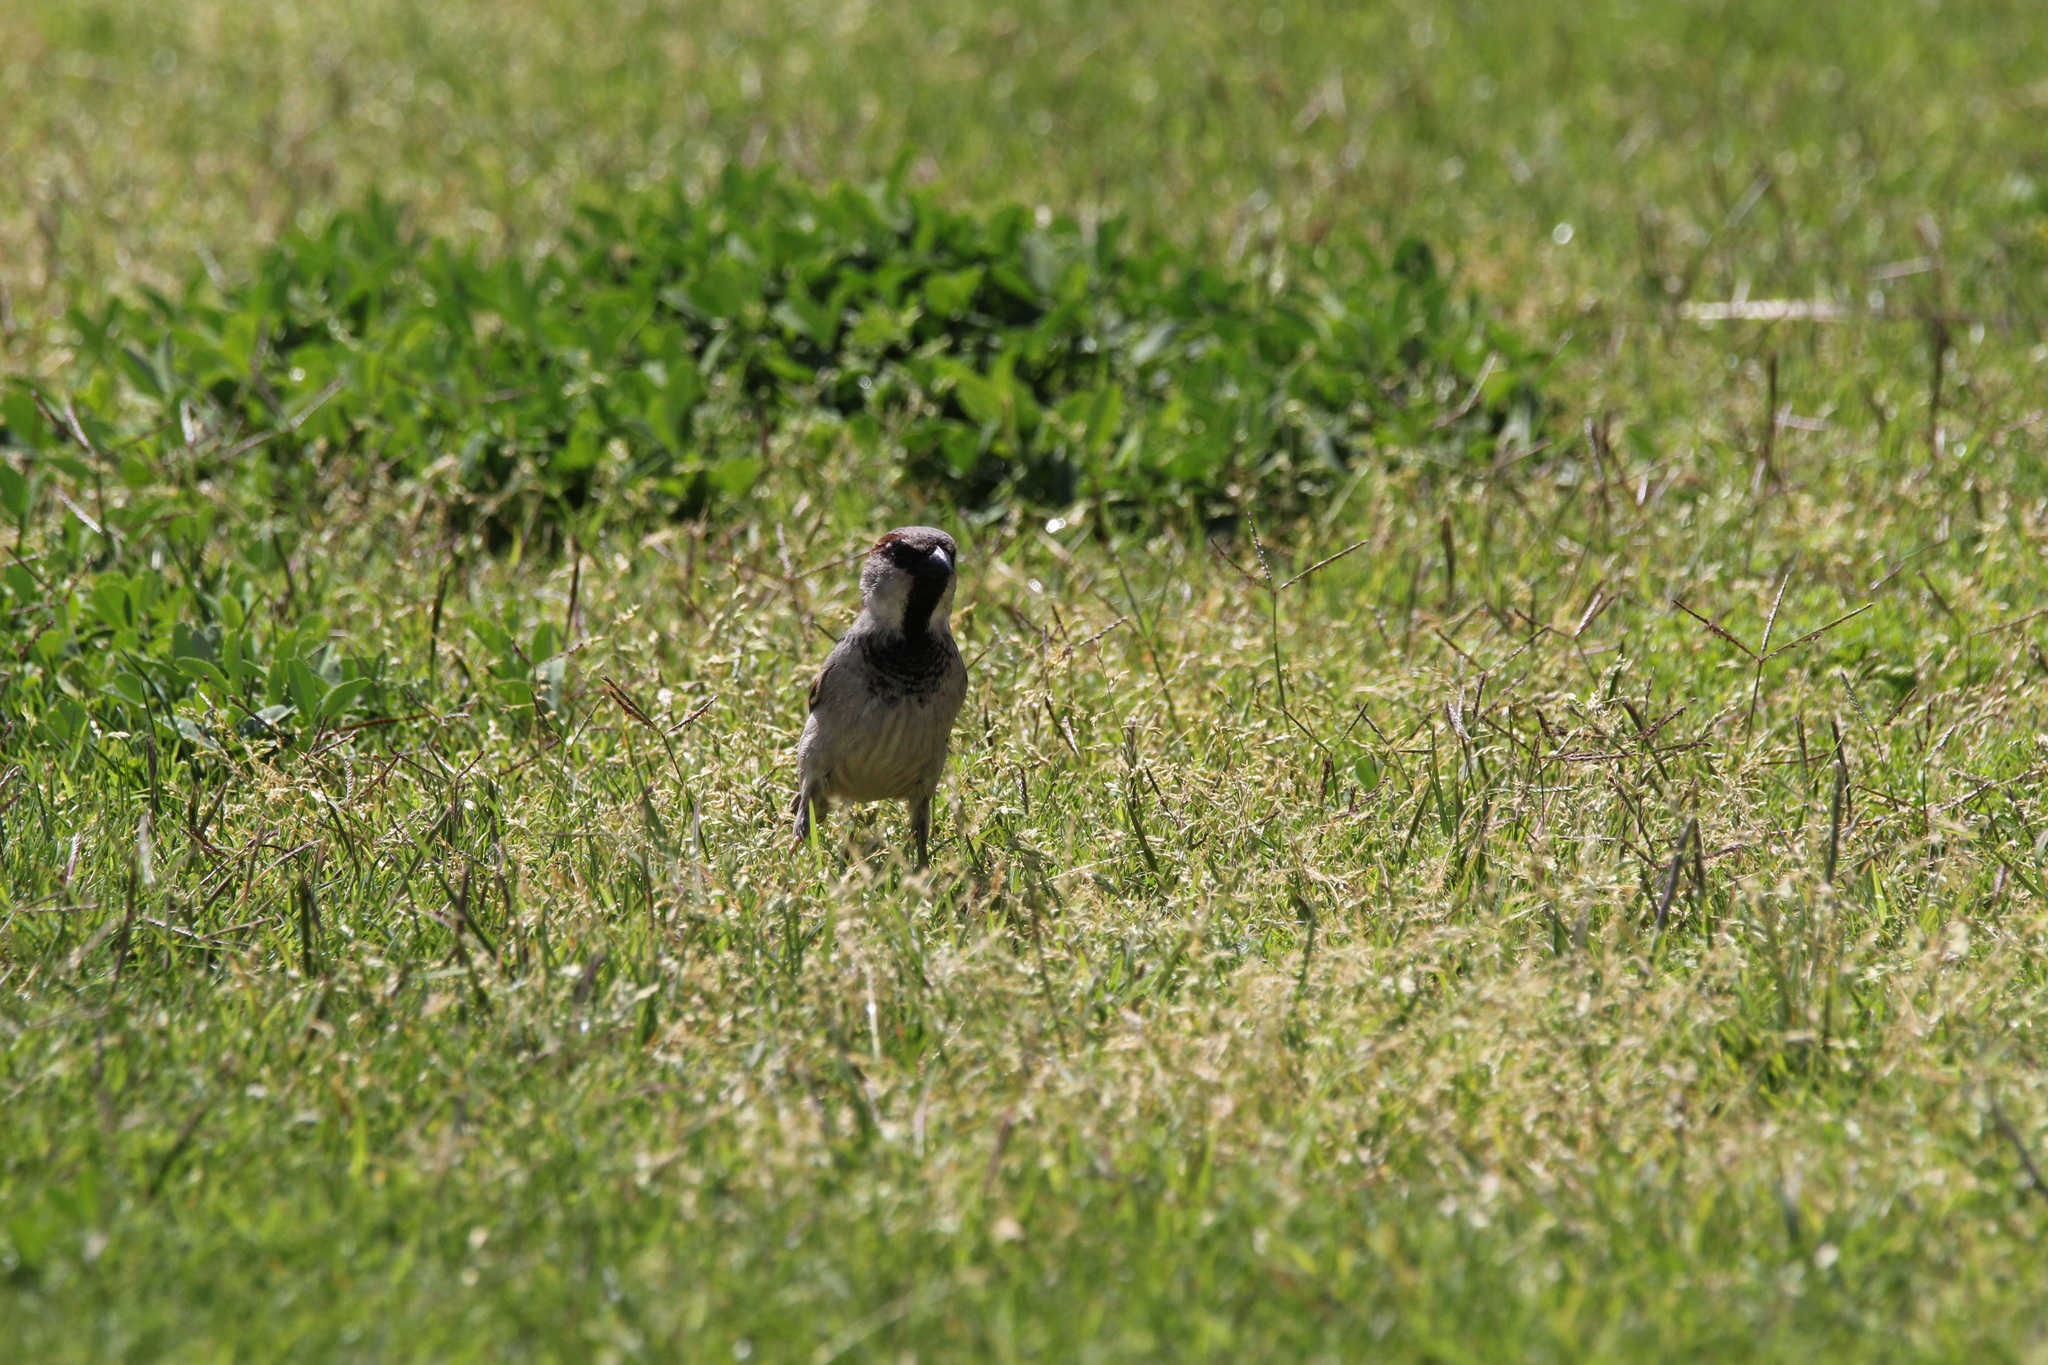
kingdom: Animalia
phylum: Chordata
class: Aves
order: Passeriformes
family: Passeridae
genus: Passer
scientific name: Passer domesticus
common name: House sparrow
